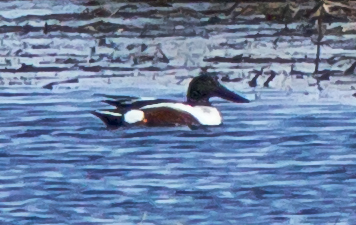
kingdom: Animalia
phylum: Chordata
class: Aves
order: Anseriformes
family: Anatidae
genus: Spatula
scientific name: Spatula clypeata
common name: Northern shoveler
